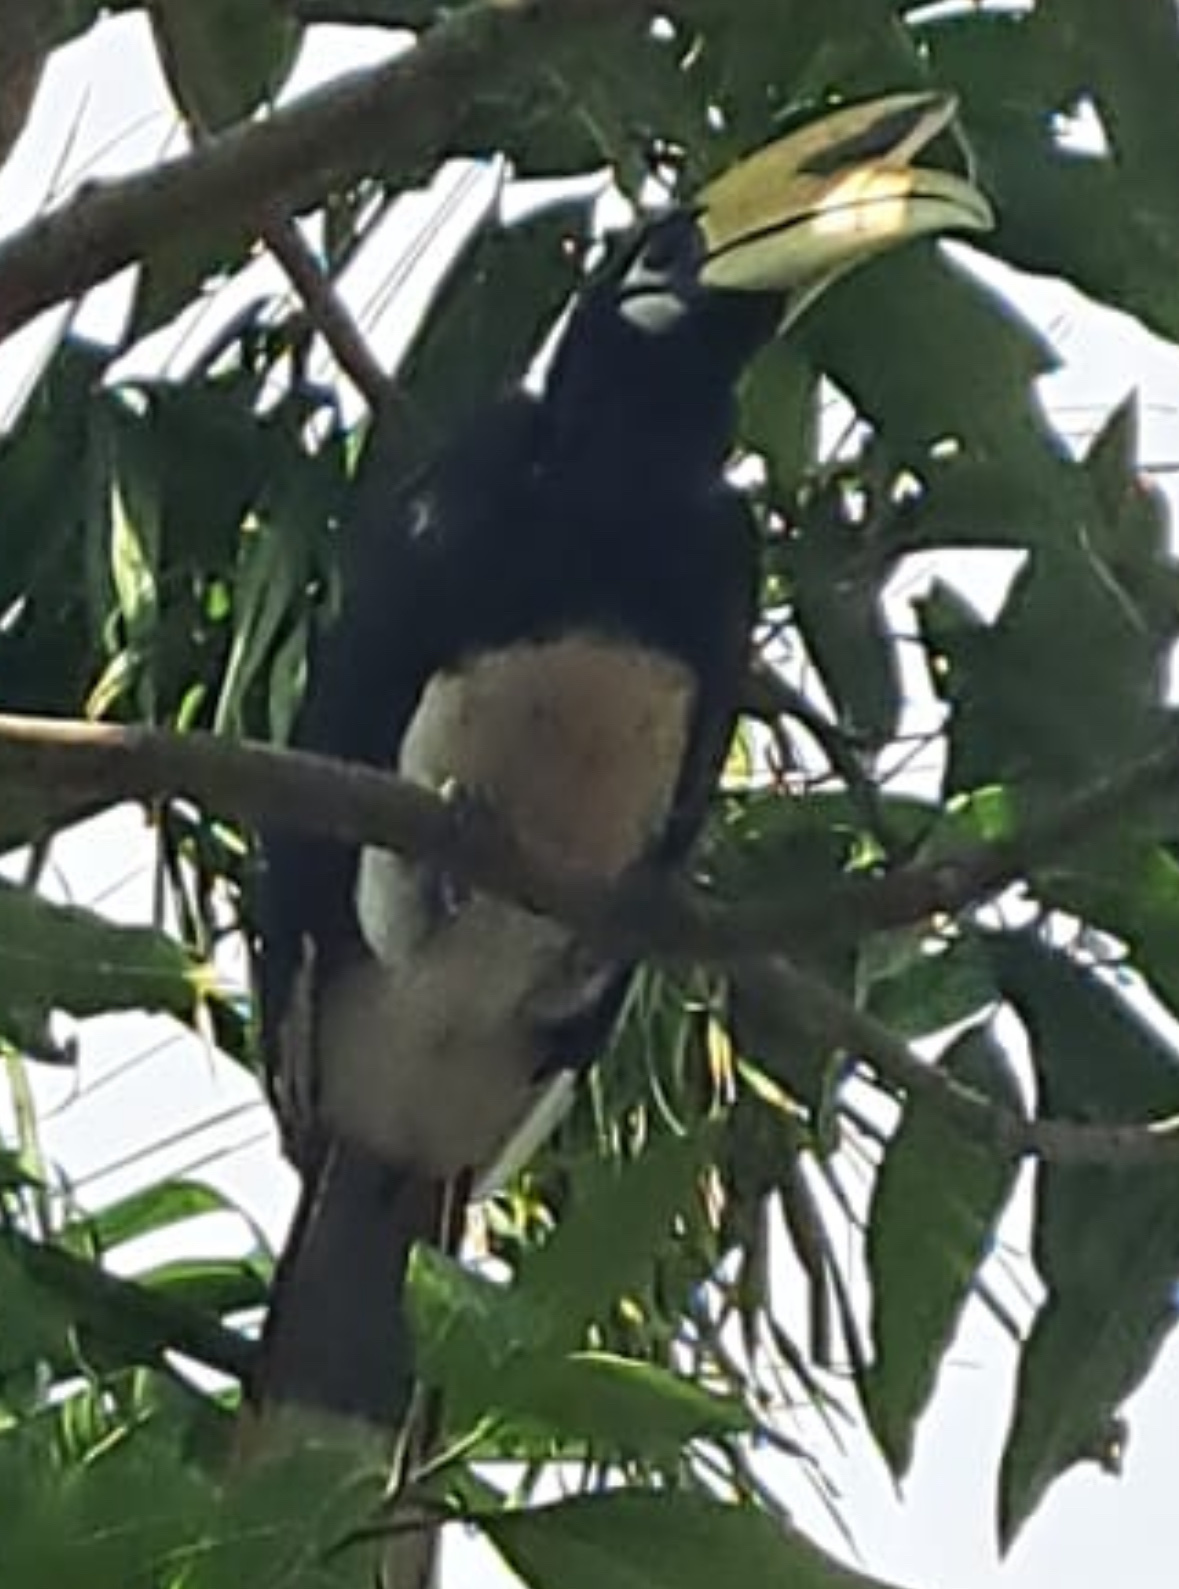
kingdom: Animalia
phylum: Chordata
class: Aves
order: Bucerotiformes
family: Bucerotidae
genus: Anthracoceros
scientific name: Anthracoceros albirostris
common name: Oriental pied-hornbill
